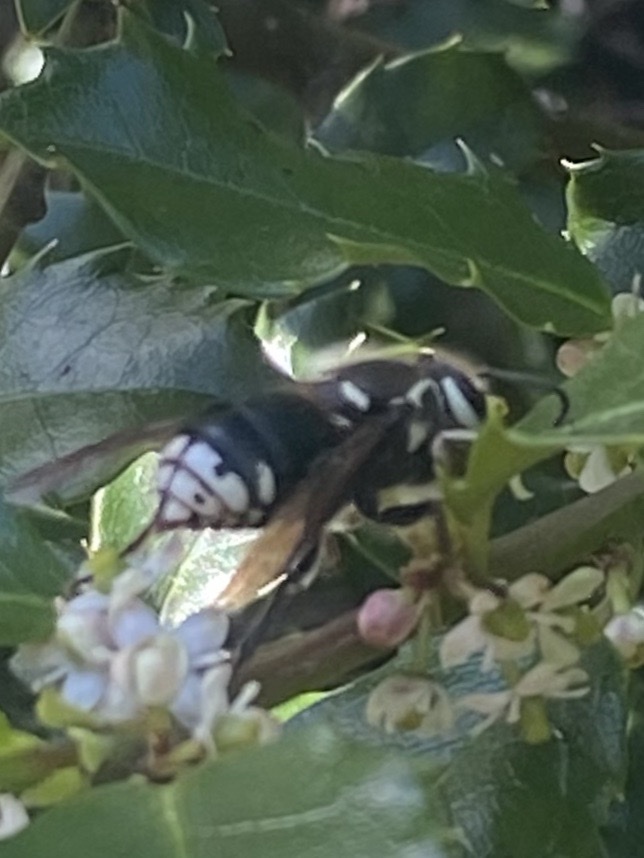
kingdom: Animalia
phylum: Arthropoda
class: Insecta
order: Hymenoptera
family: Vespidae
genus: Dolichovespula
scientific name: Dolichovespula maculata
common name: Bald-faced hornet
